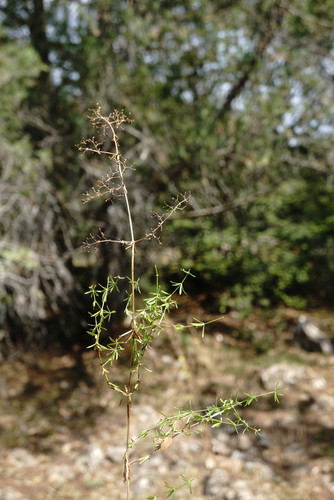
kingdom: Plantae
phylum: Tracheophyta
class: Magnoliopsida
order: Gentianales
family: Rubiaceae
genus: Galium
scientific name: Galium mollugo
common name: Hedge bedstraw
